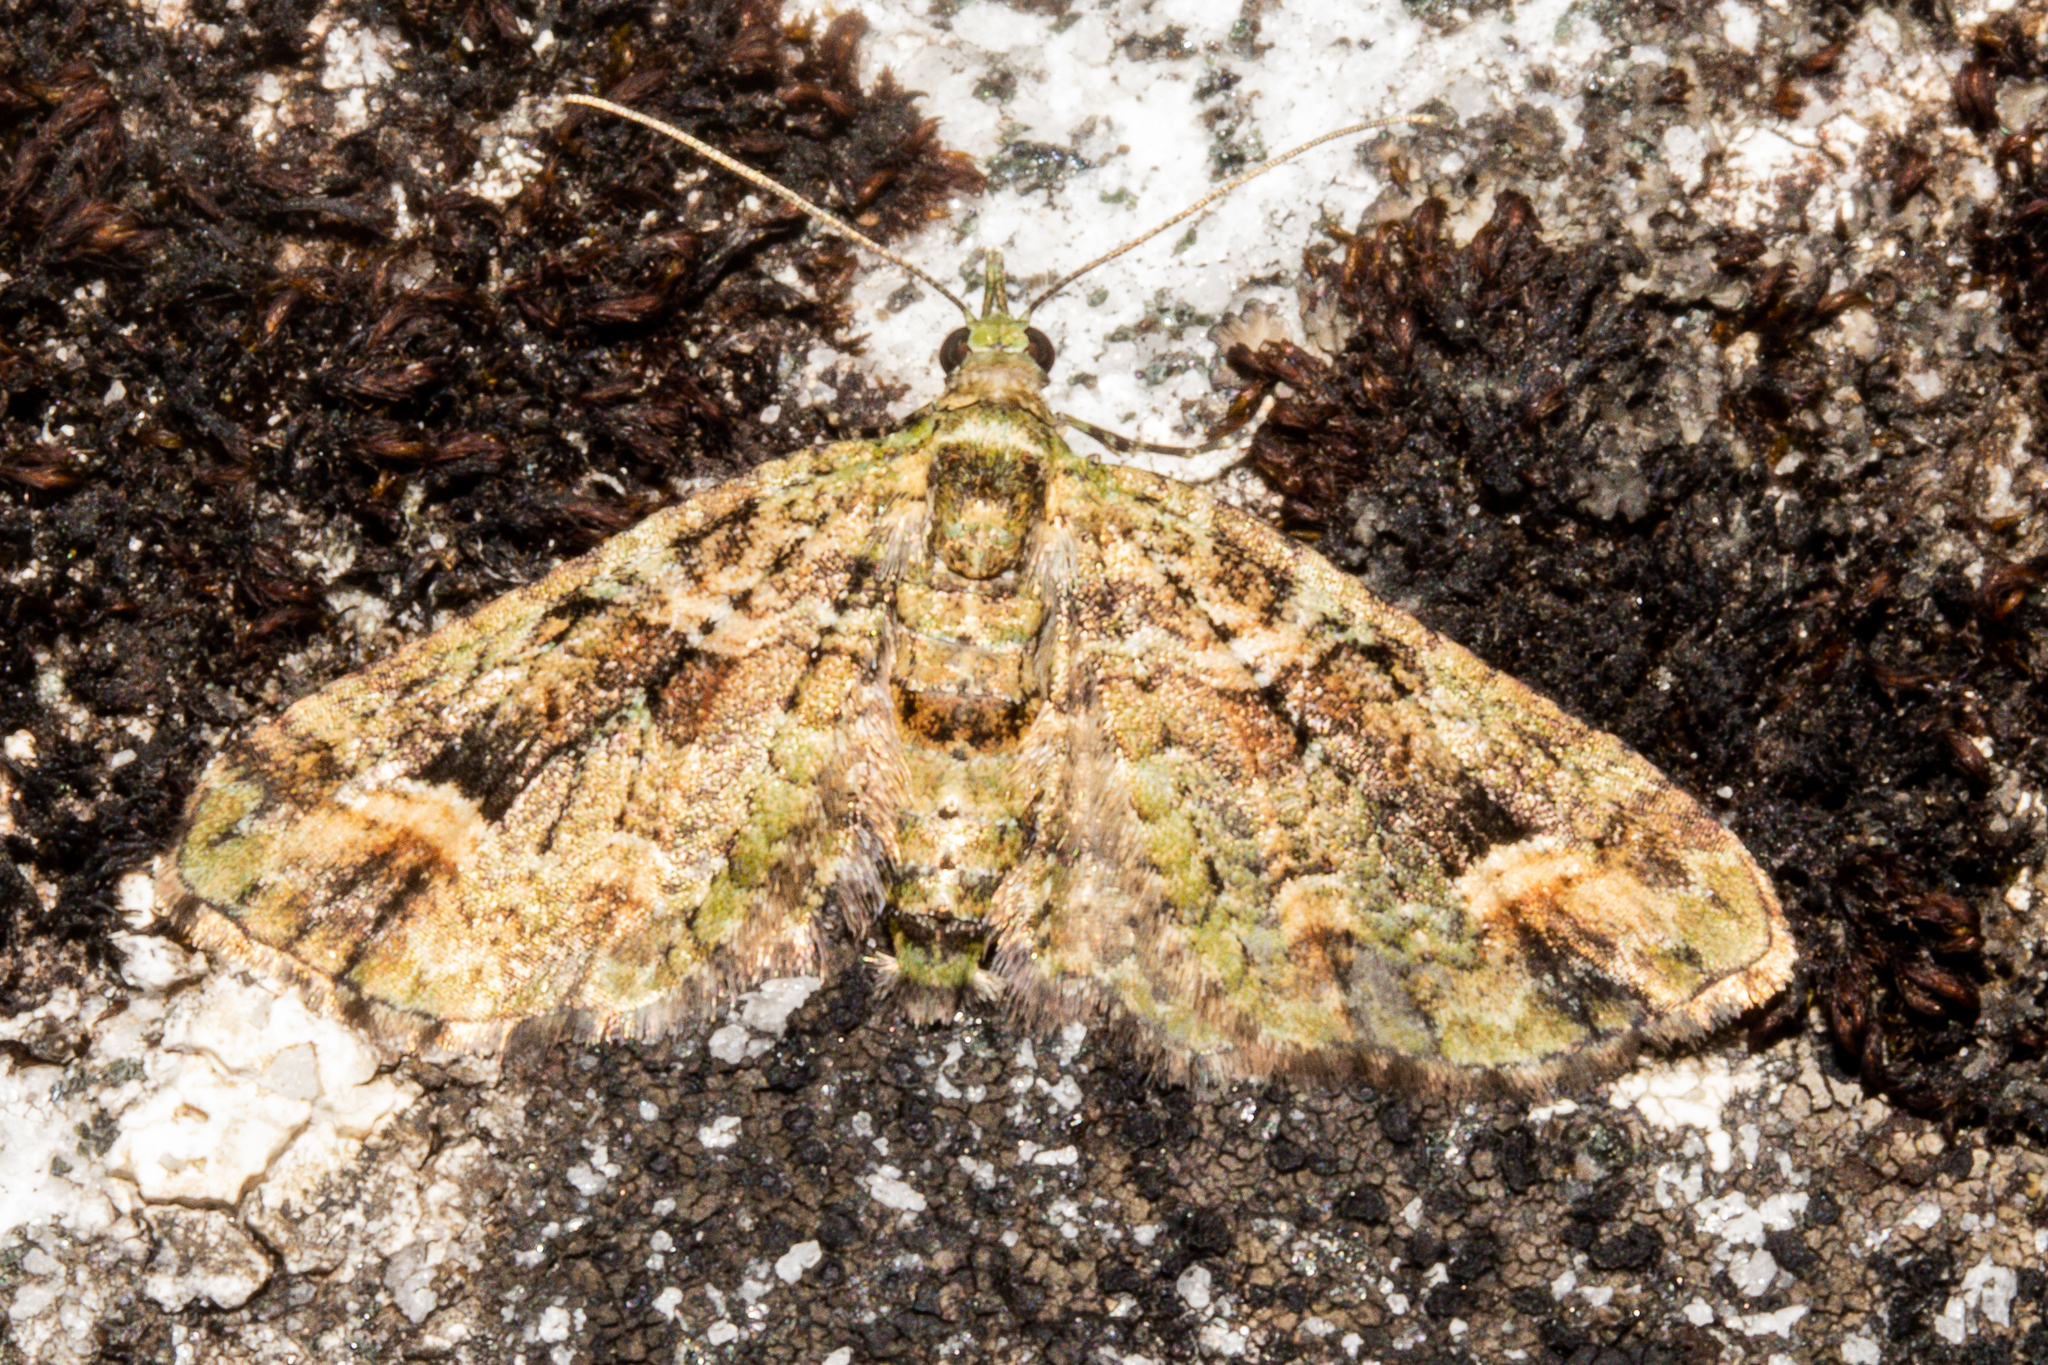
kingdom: Animalia
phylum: Arthropoda
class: Insecta
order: Lepidoptera
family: Geometridae
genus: Idaea
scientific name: Idaea mutanda
